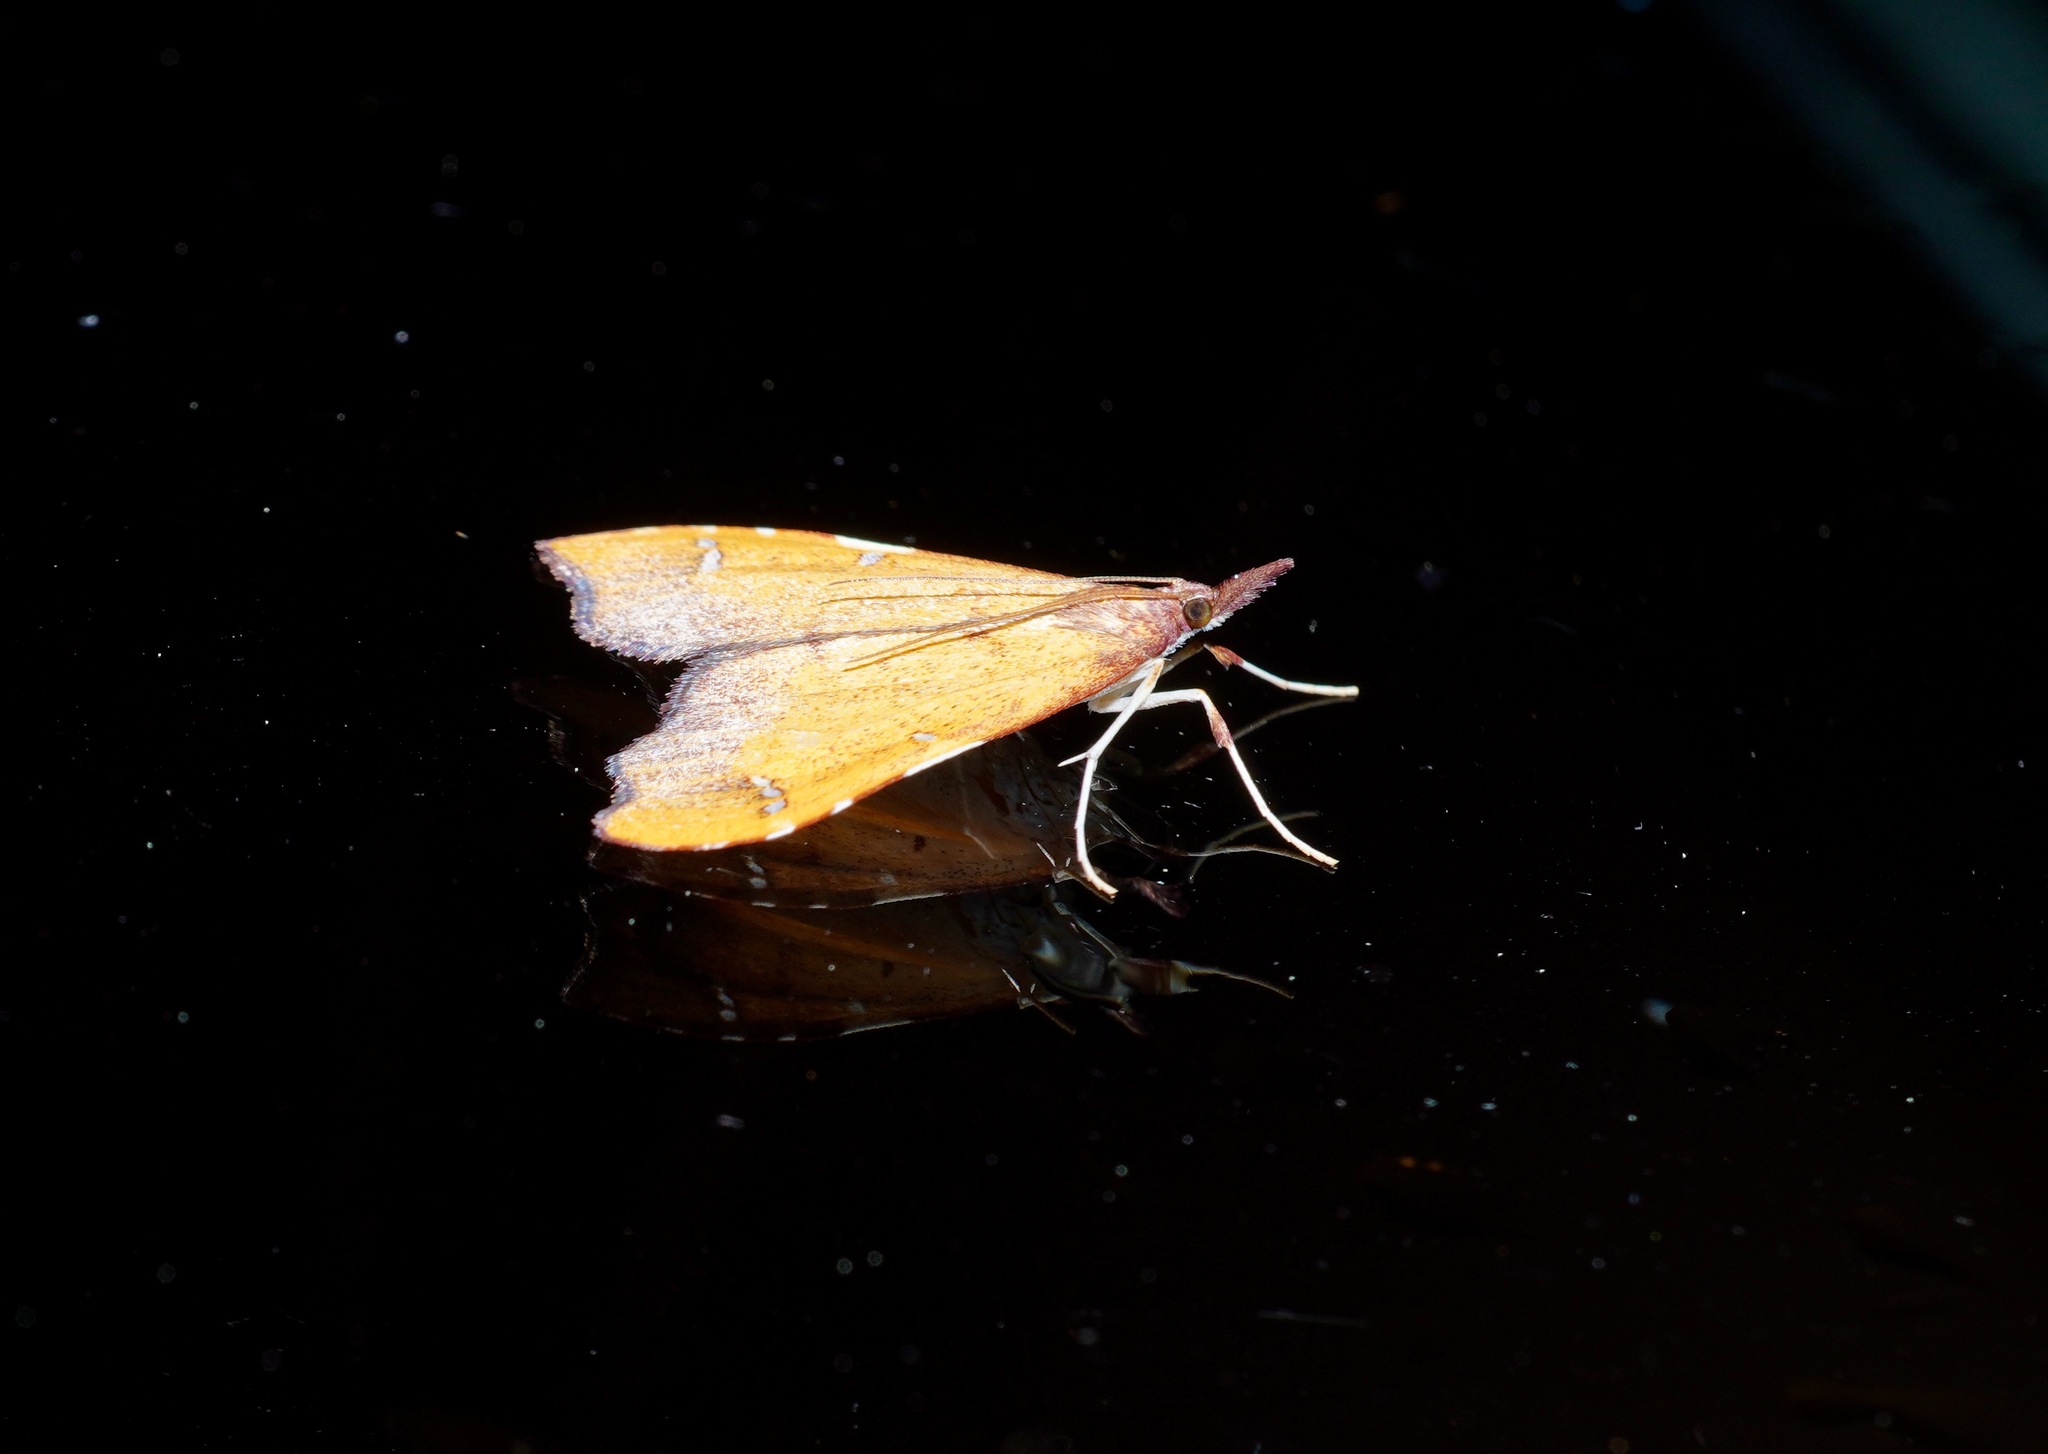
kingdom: Animalia
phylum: Arthropoda
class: Insecta
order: Lepidoptera
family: Crambidae
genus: Deana
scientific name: Deana hybreasalis
